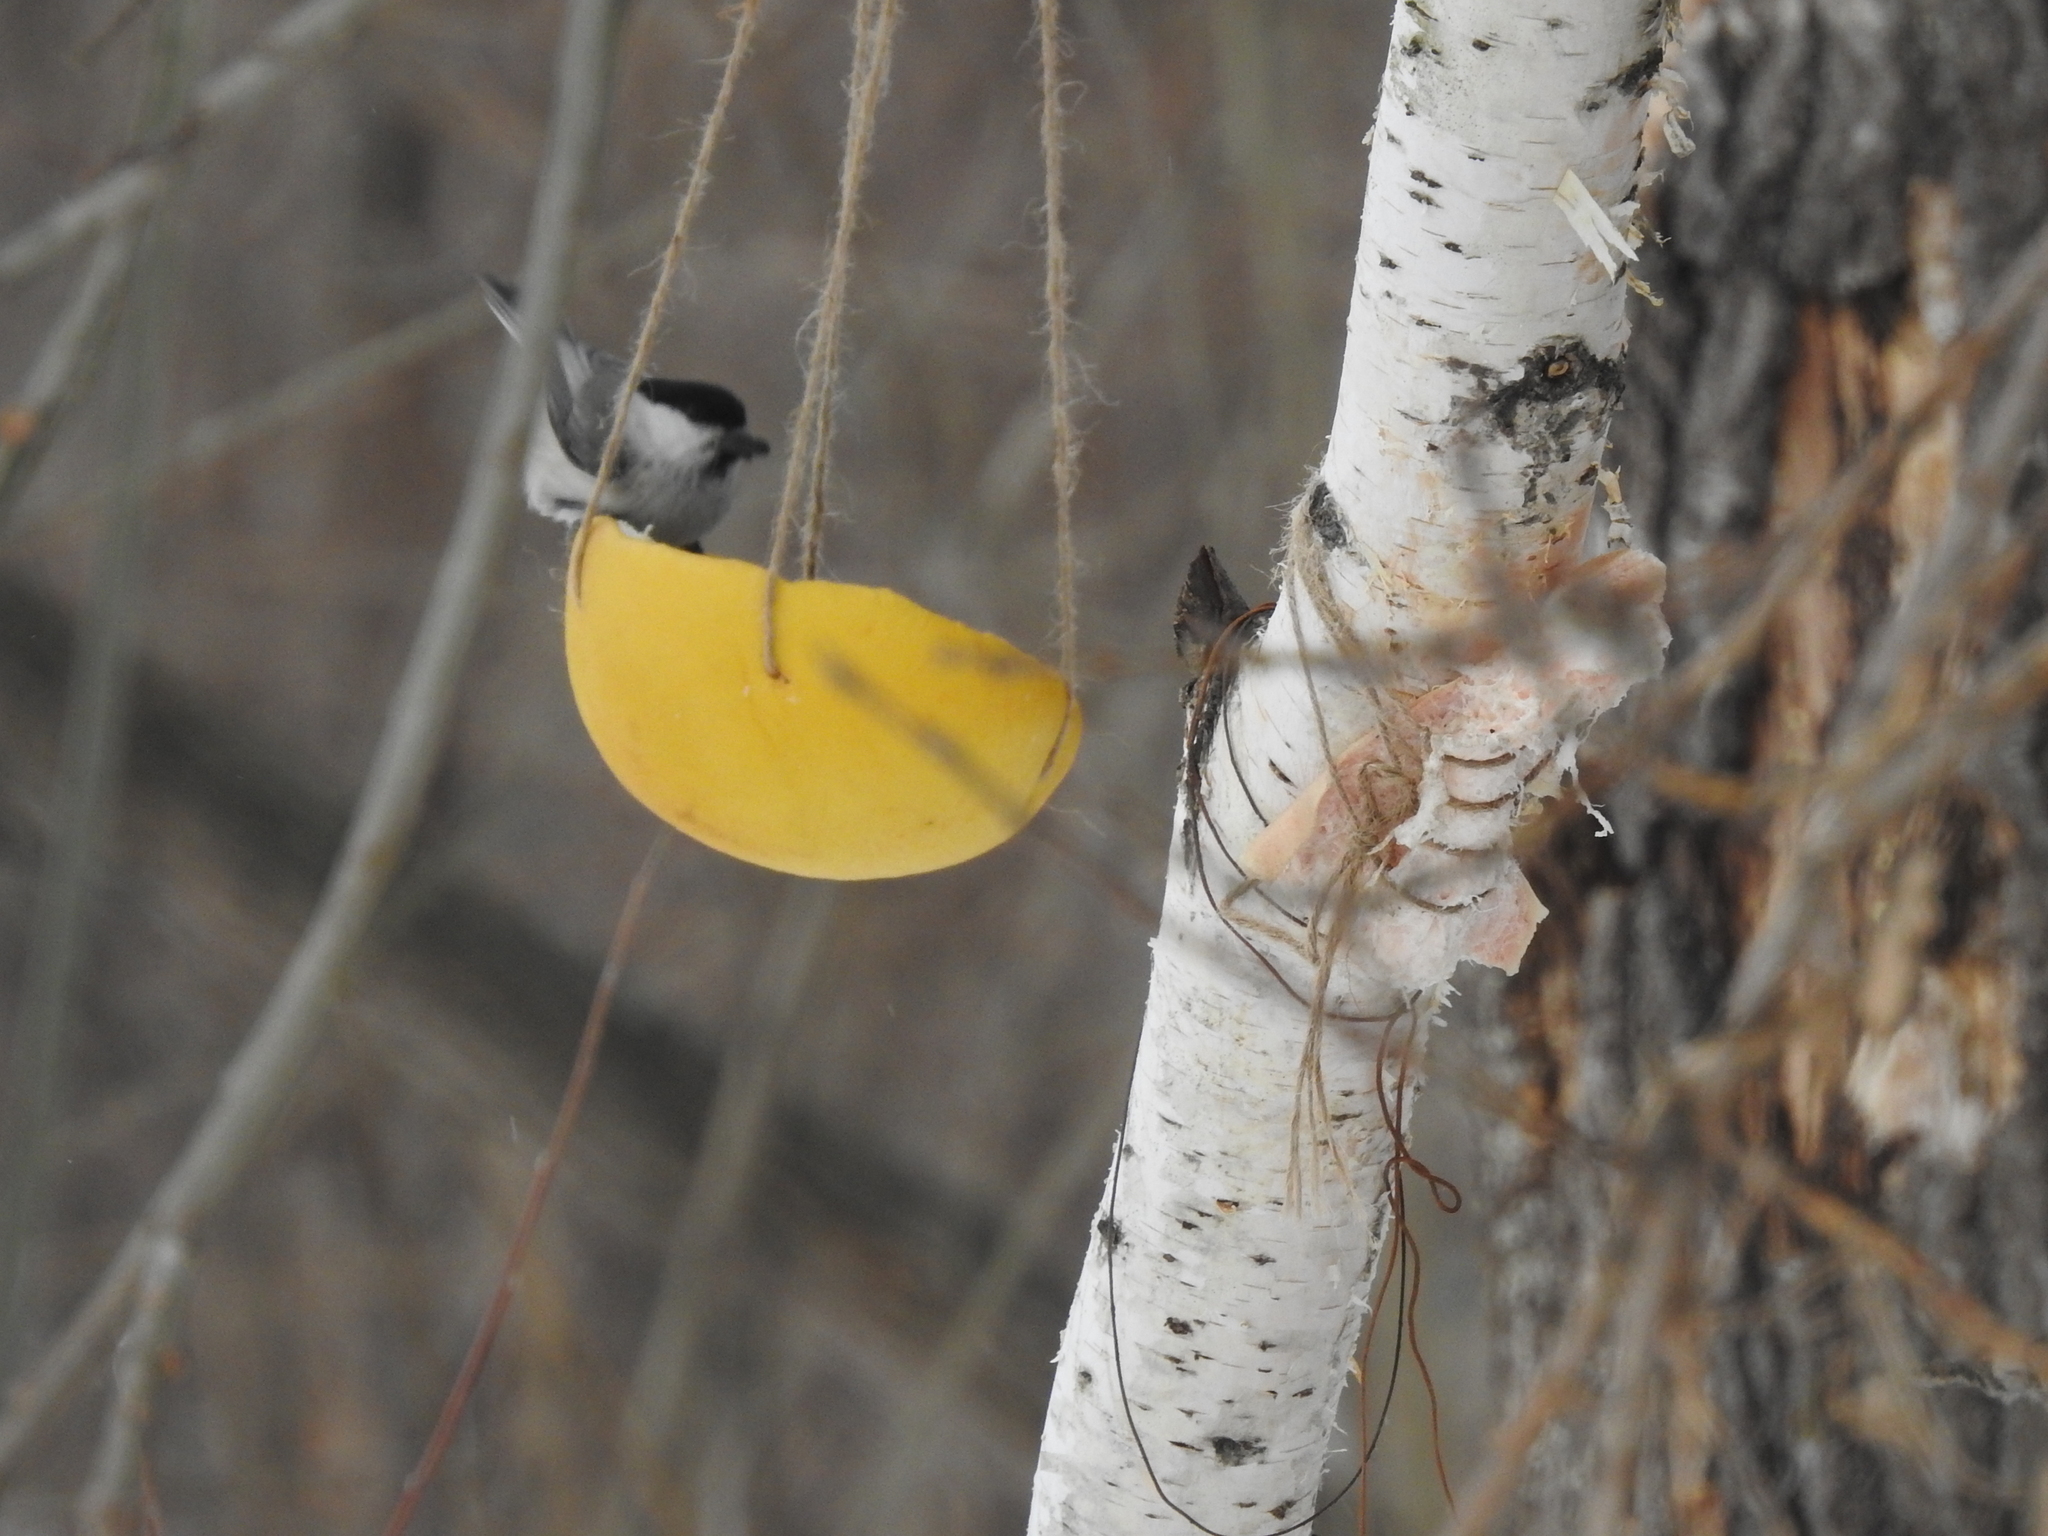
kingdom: Animalia
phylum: Chordata
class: Aves
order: Passeriformes
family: Paridae
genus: Poecile
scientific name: Poecile montanus
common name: Willow tit
